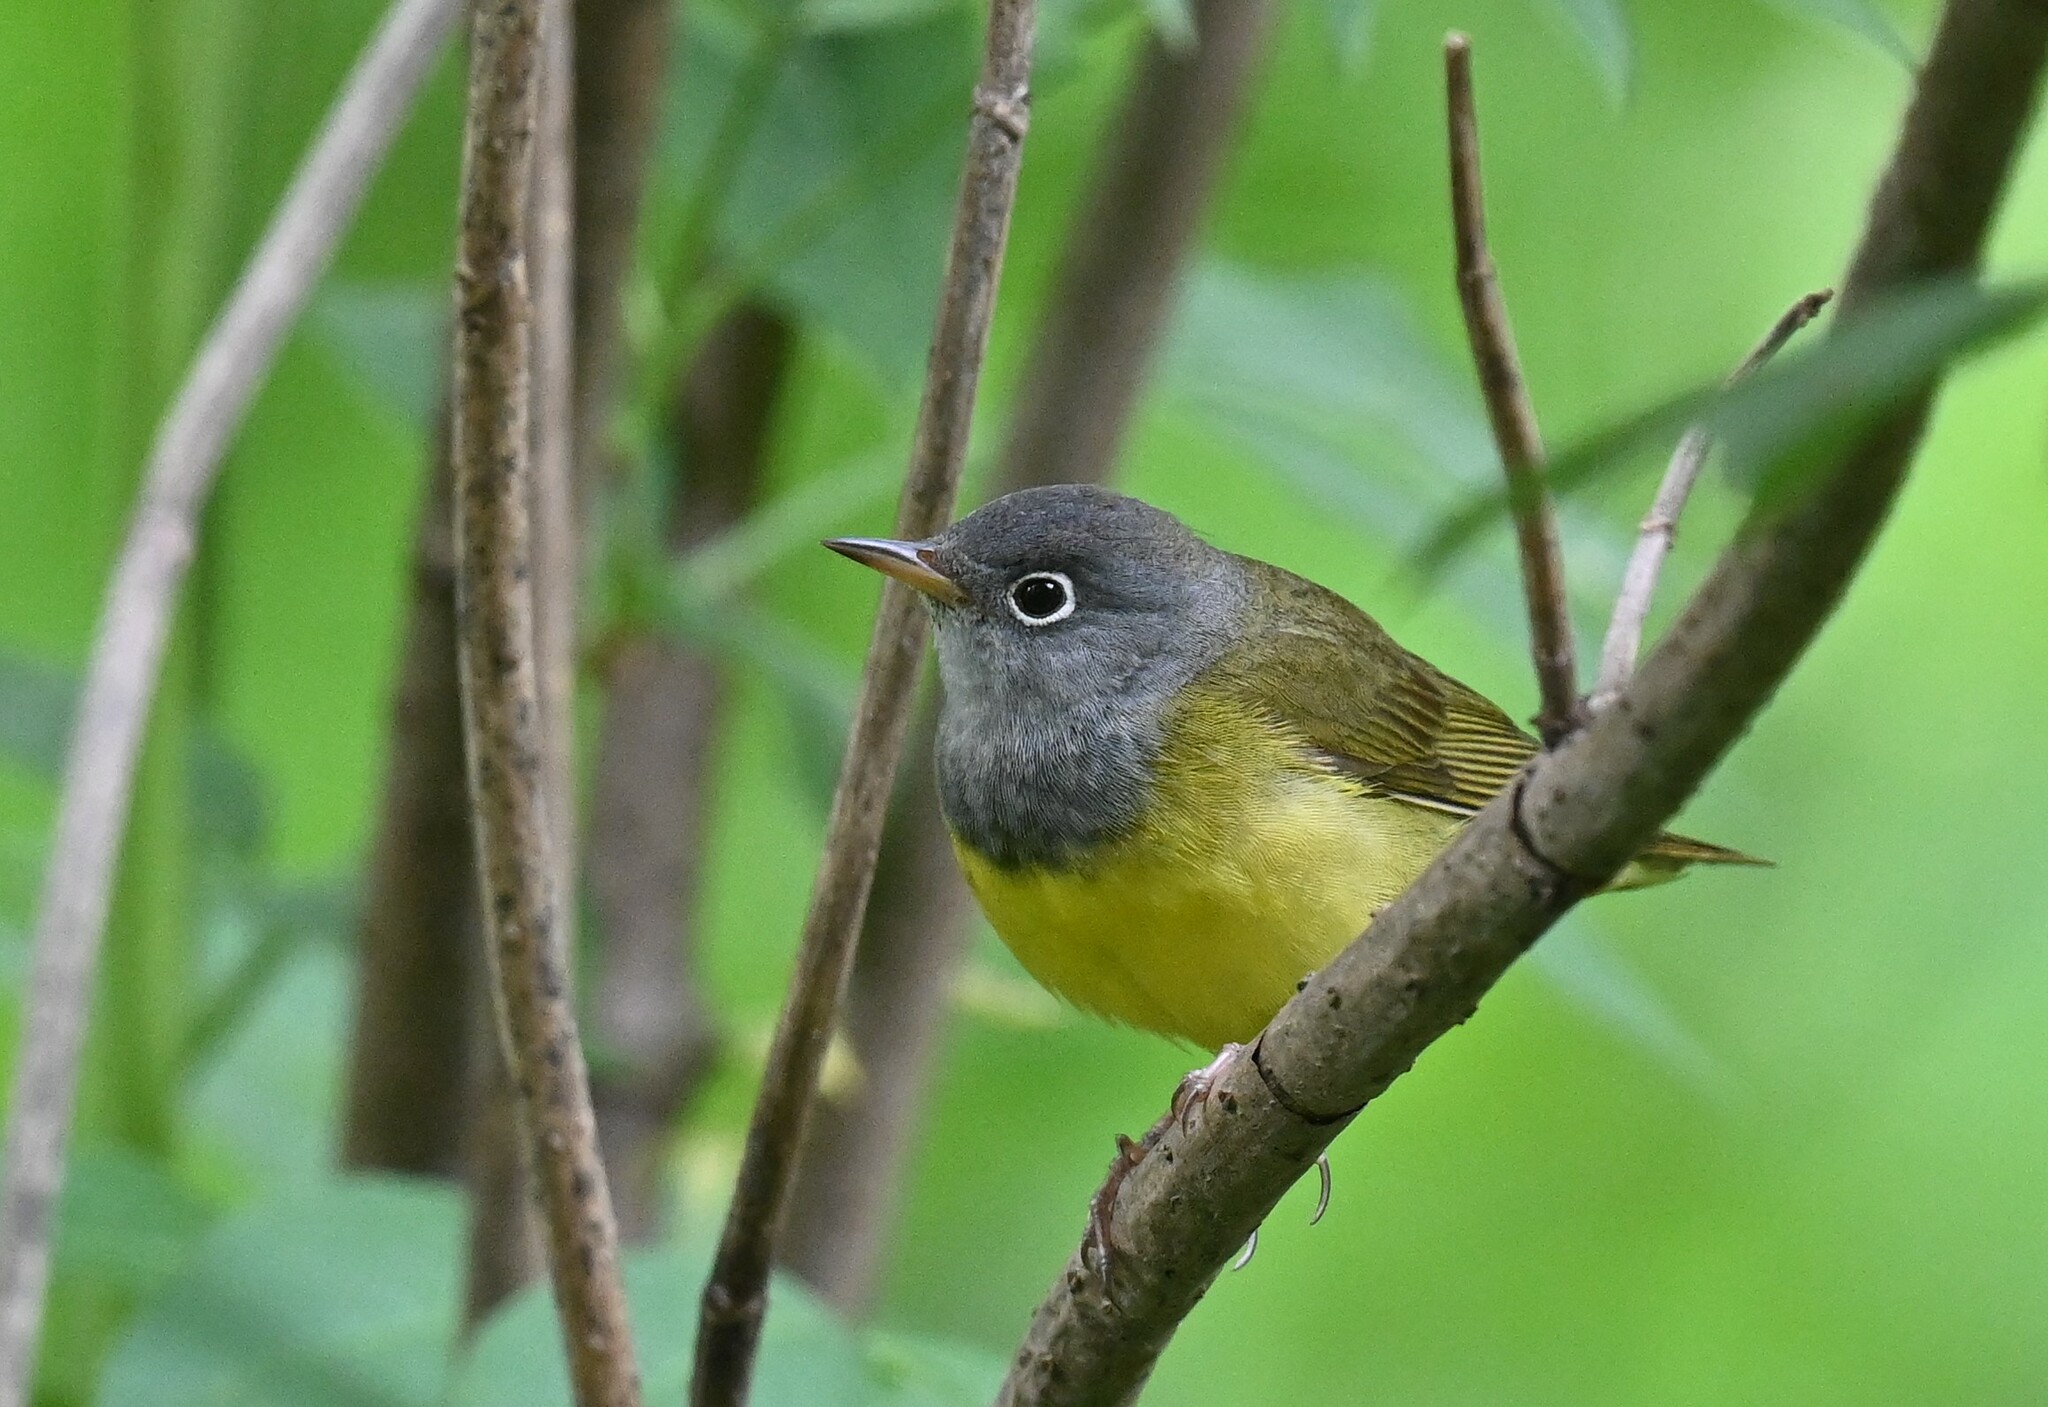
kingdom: Animalia
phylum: Chordata
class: Aves
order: Passeriformes
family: Parulidae
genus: Oporornis
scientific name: Oporornis agilis
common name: Connecticut warbler
